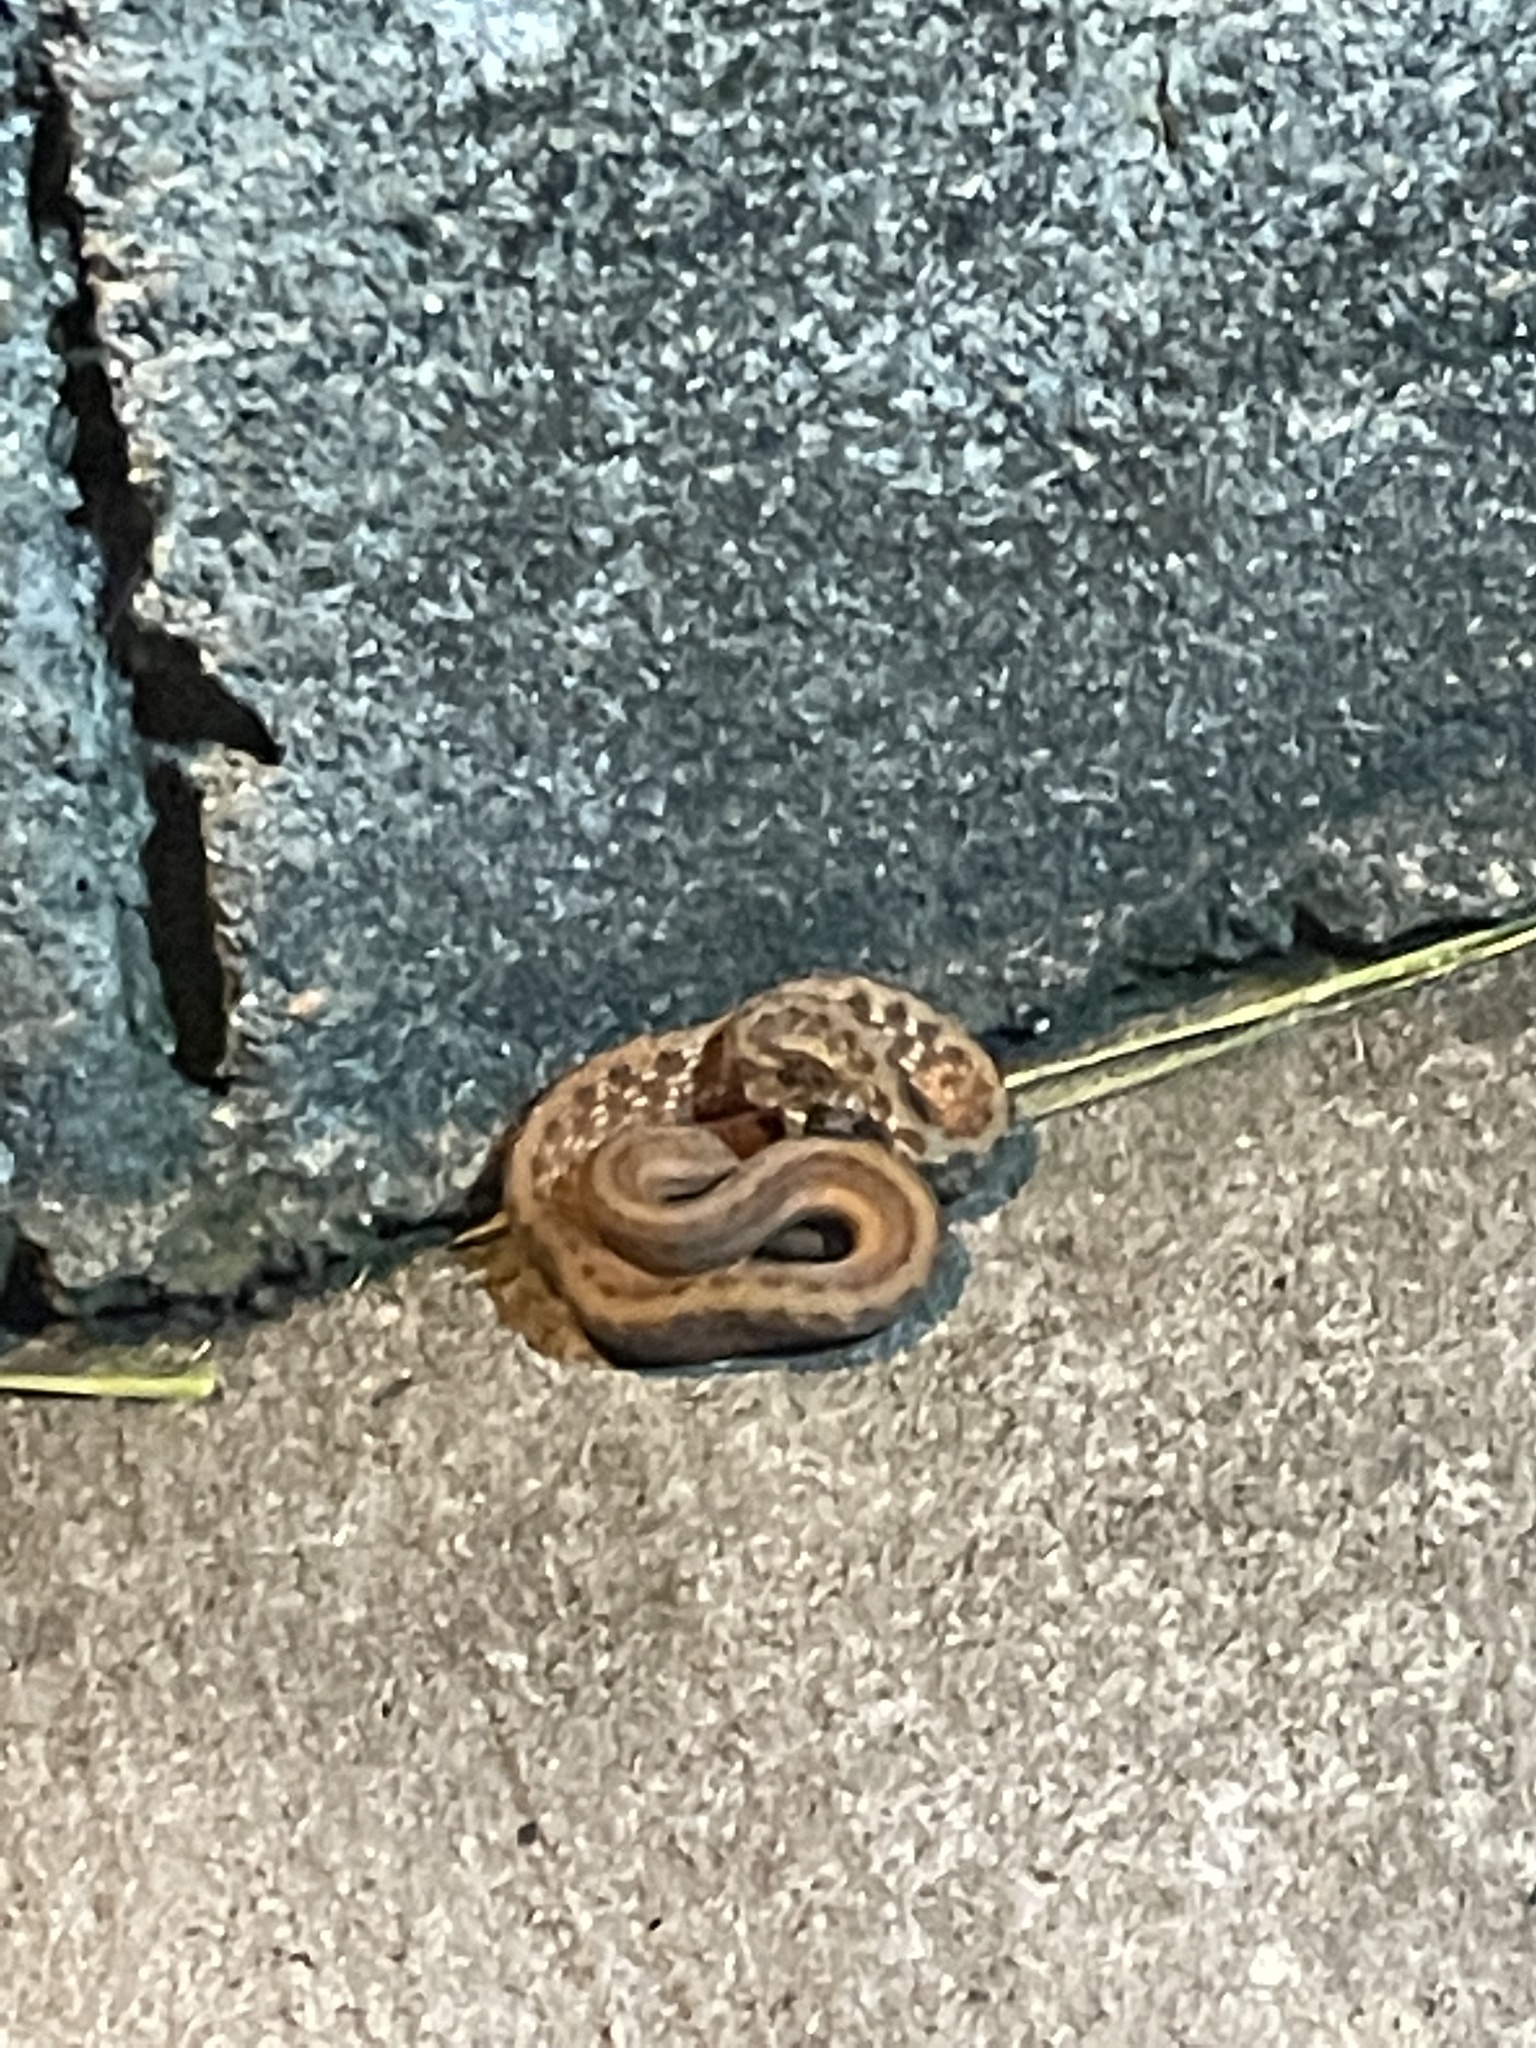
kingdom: Animalia
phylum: Chordata
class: Squamata
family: Colubridae
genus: Storeria
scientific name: Storeria dekayi
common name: (dekay’s) brown snake
